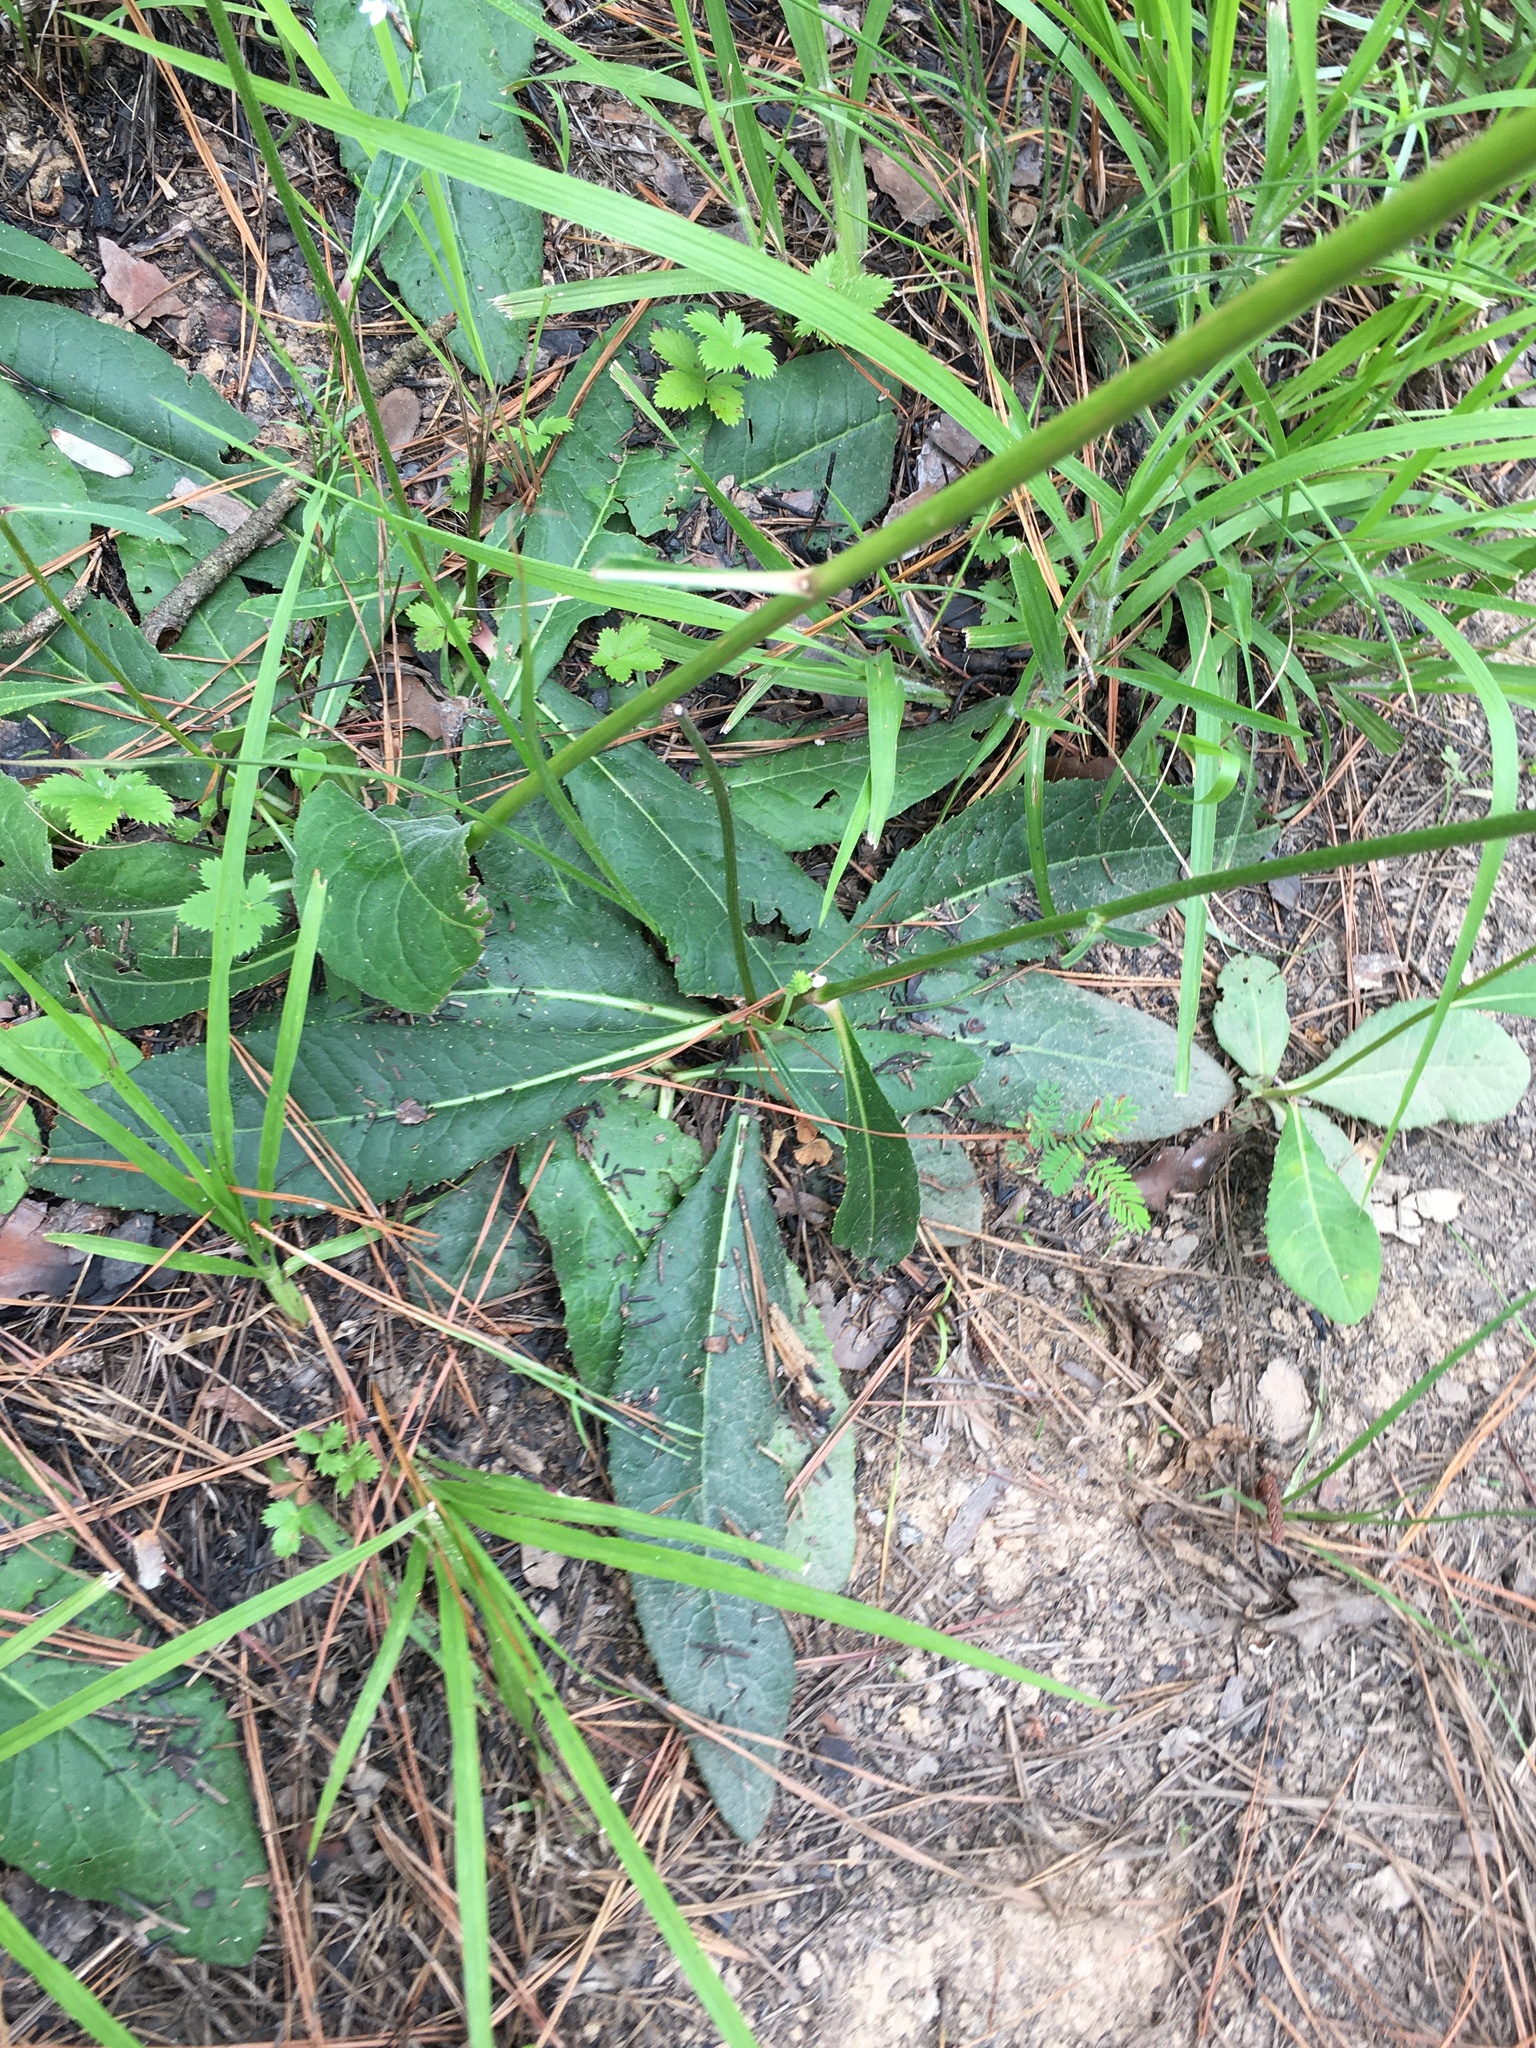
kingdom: Plantae
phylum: Tracheophyta
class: Magnoliopsida
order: Asterales
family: Asteraceae
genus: Vernonia
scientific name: Vernonia acaulis
